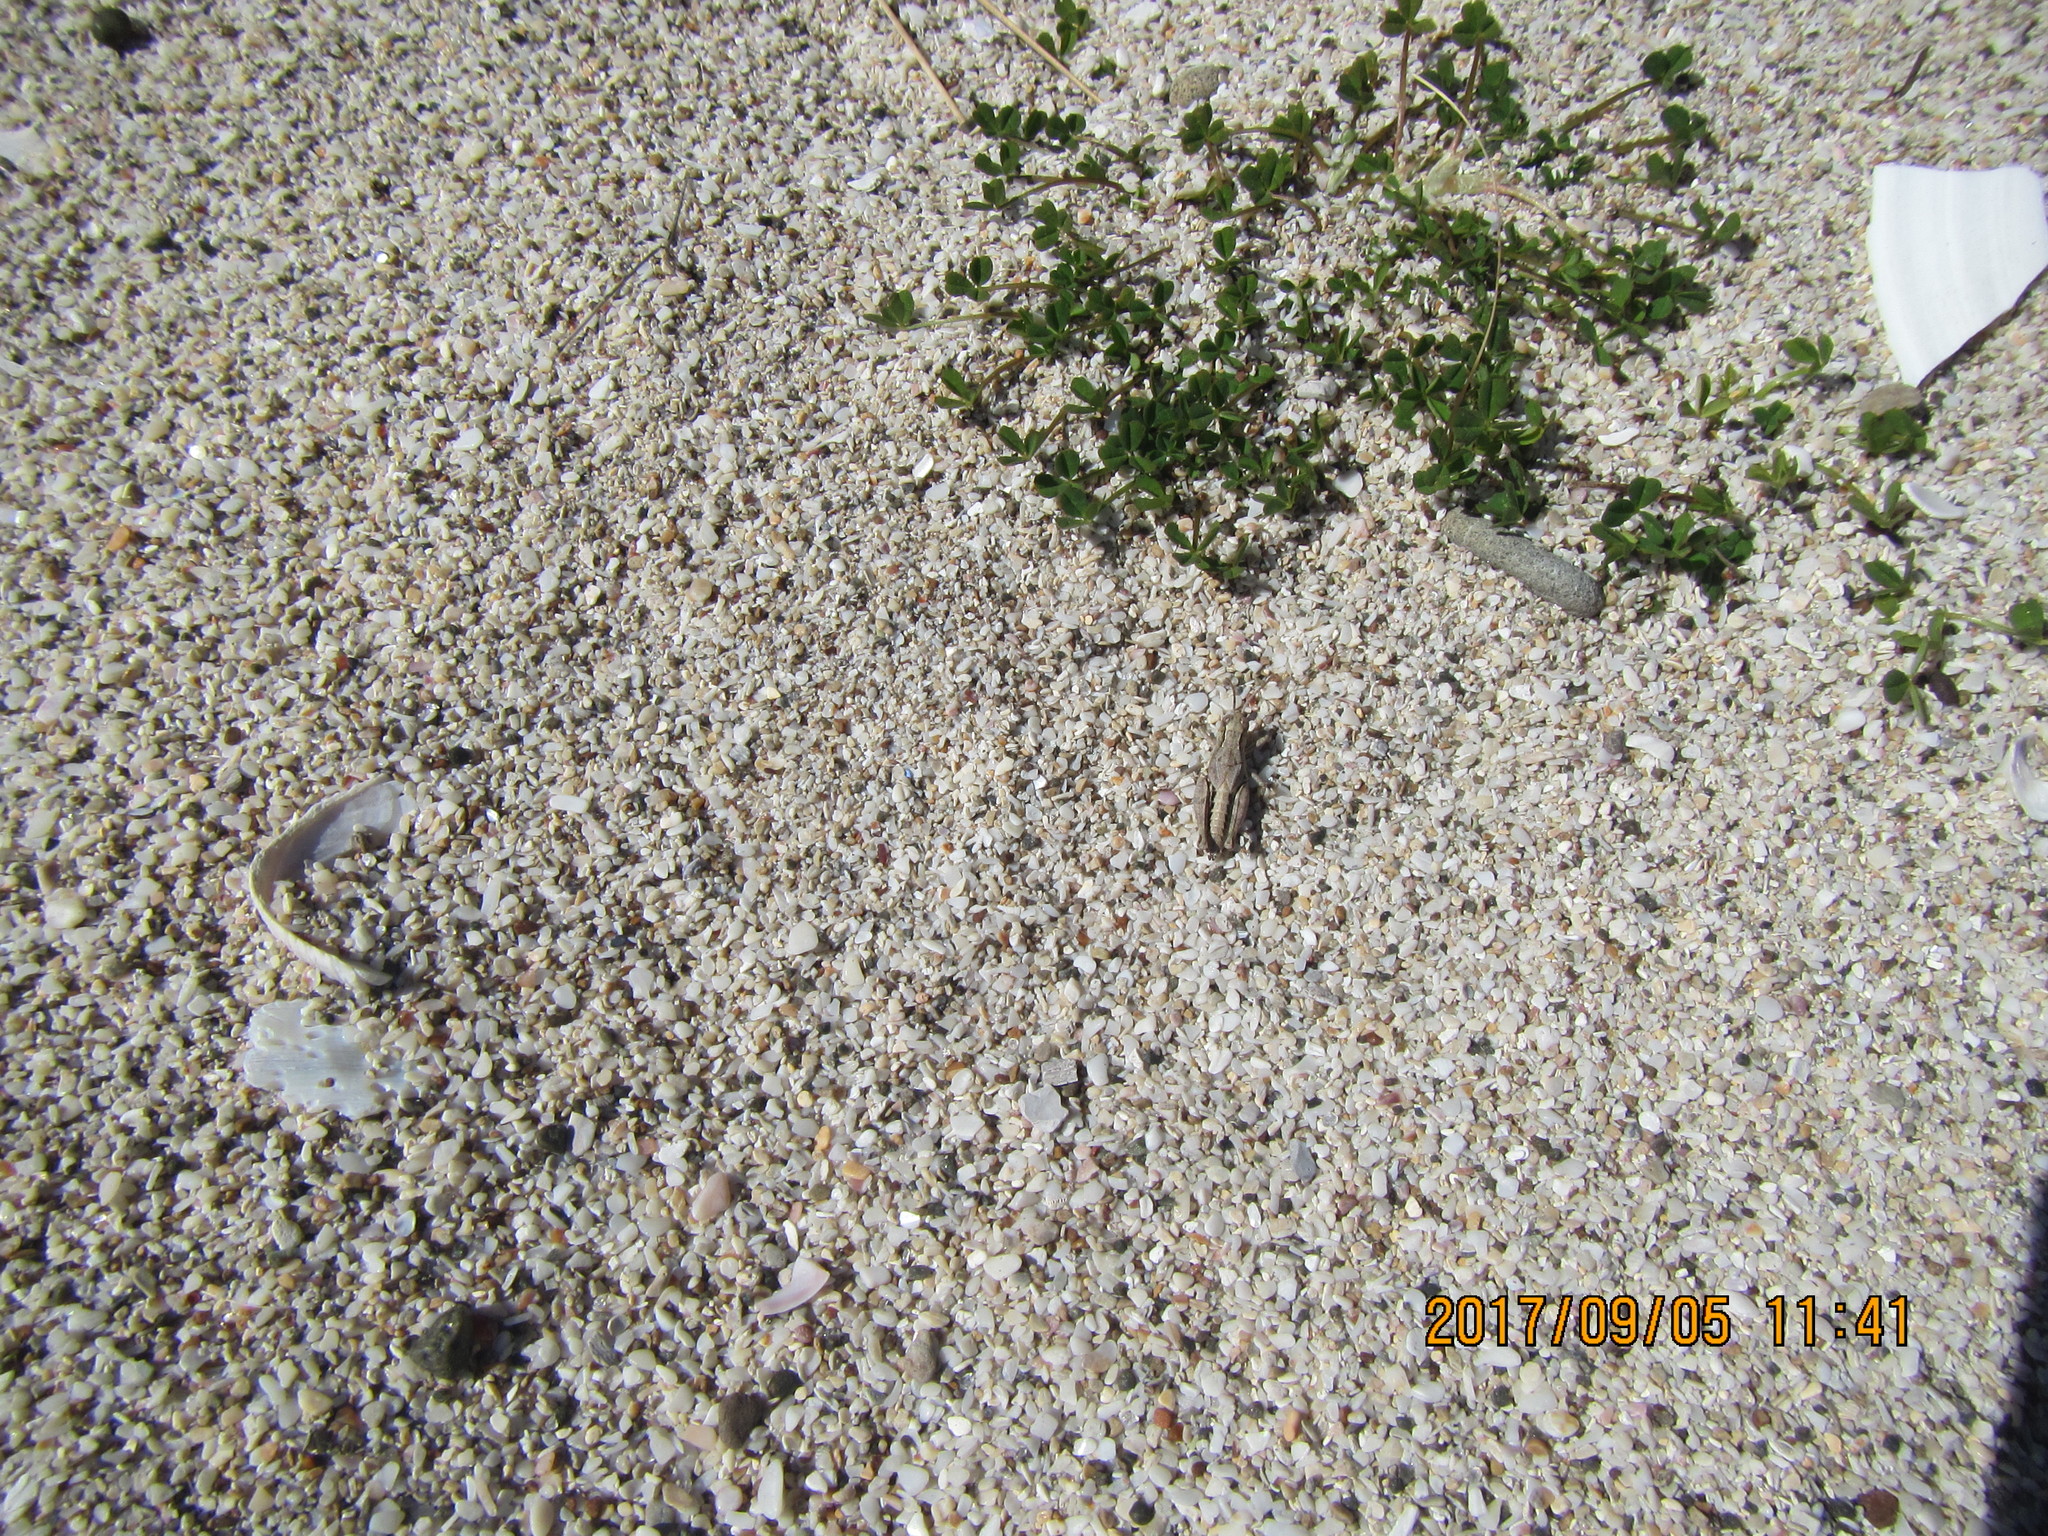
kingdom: Animalia
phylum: Arthropoda
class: Insecta
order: Orthoptera
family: Acrididae
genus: Phaulacridium
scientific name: Phaulacridium marginale
